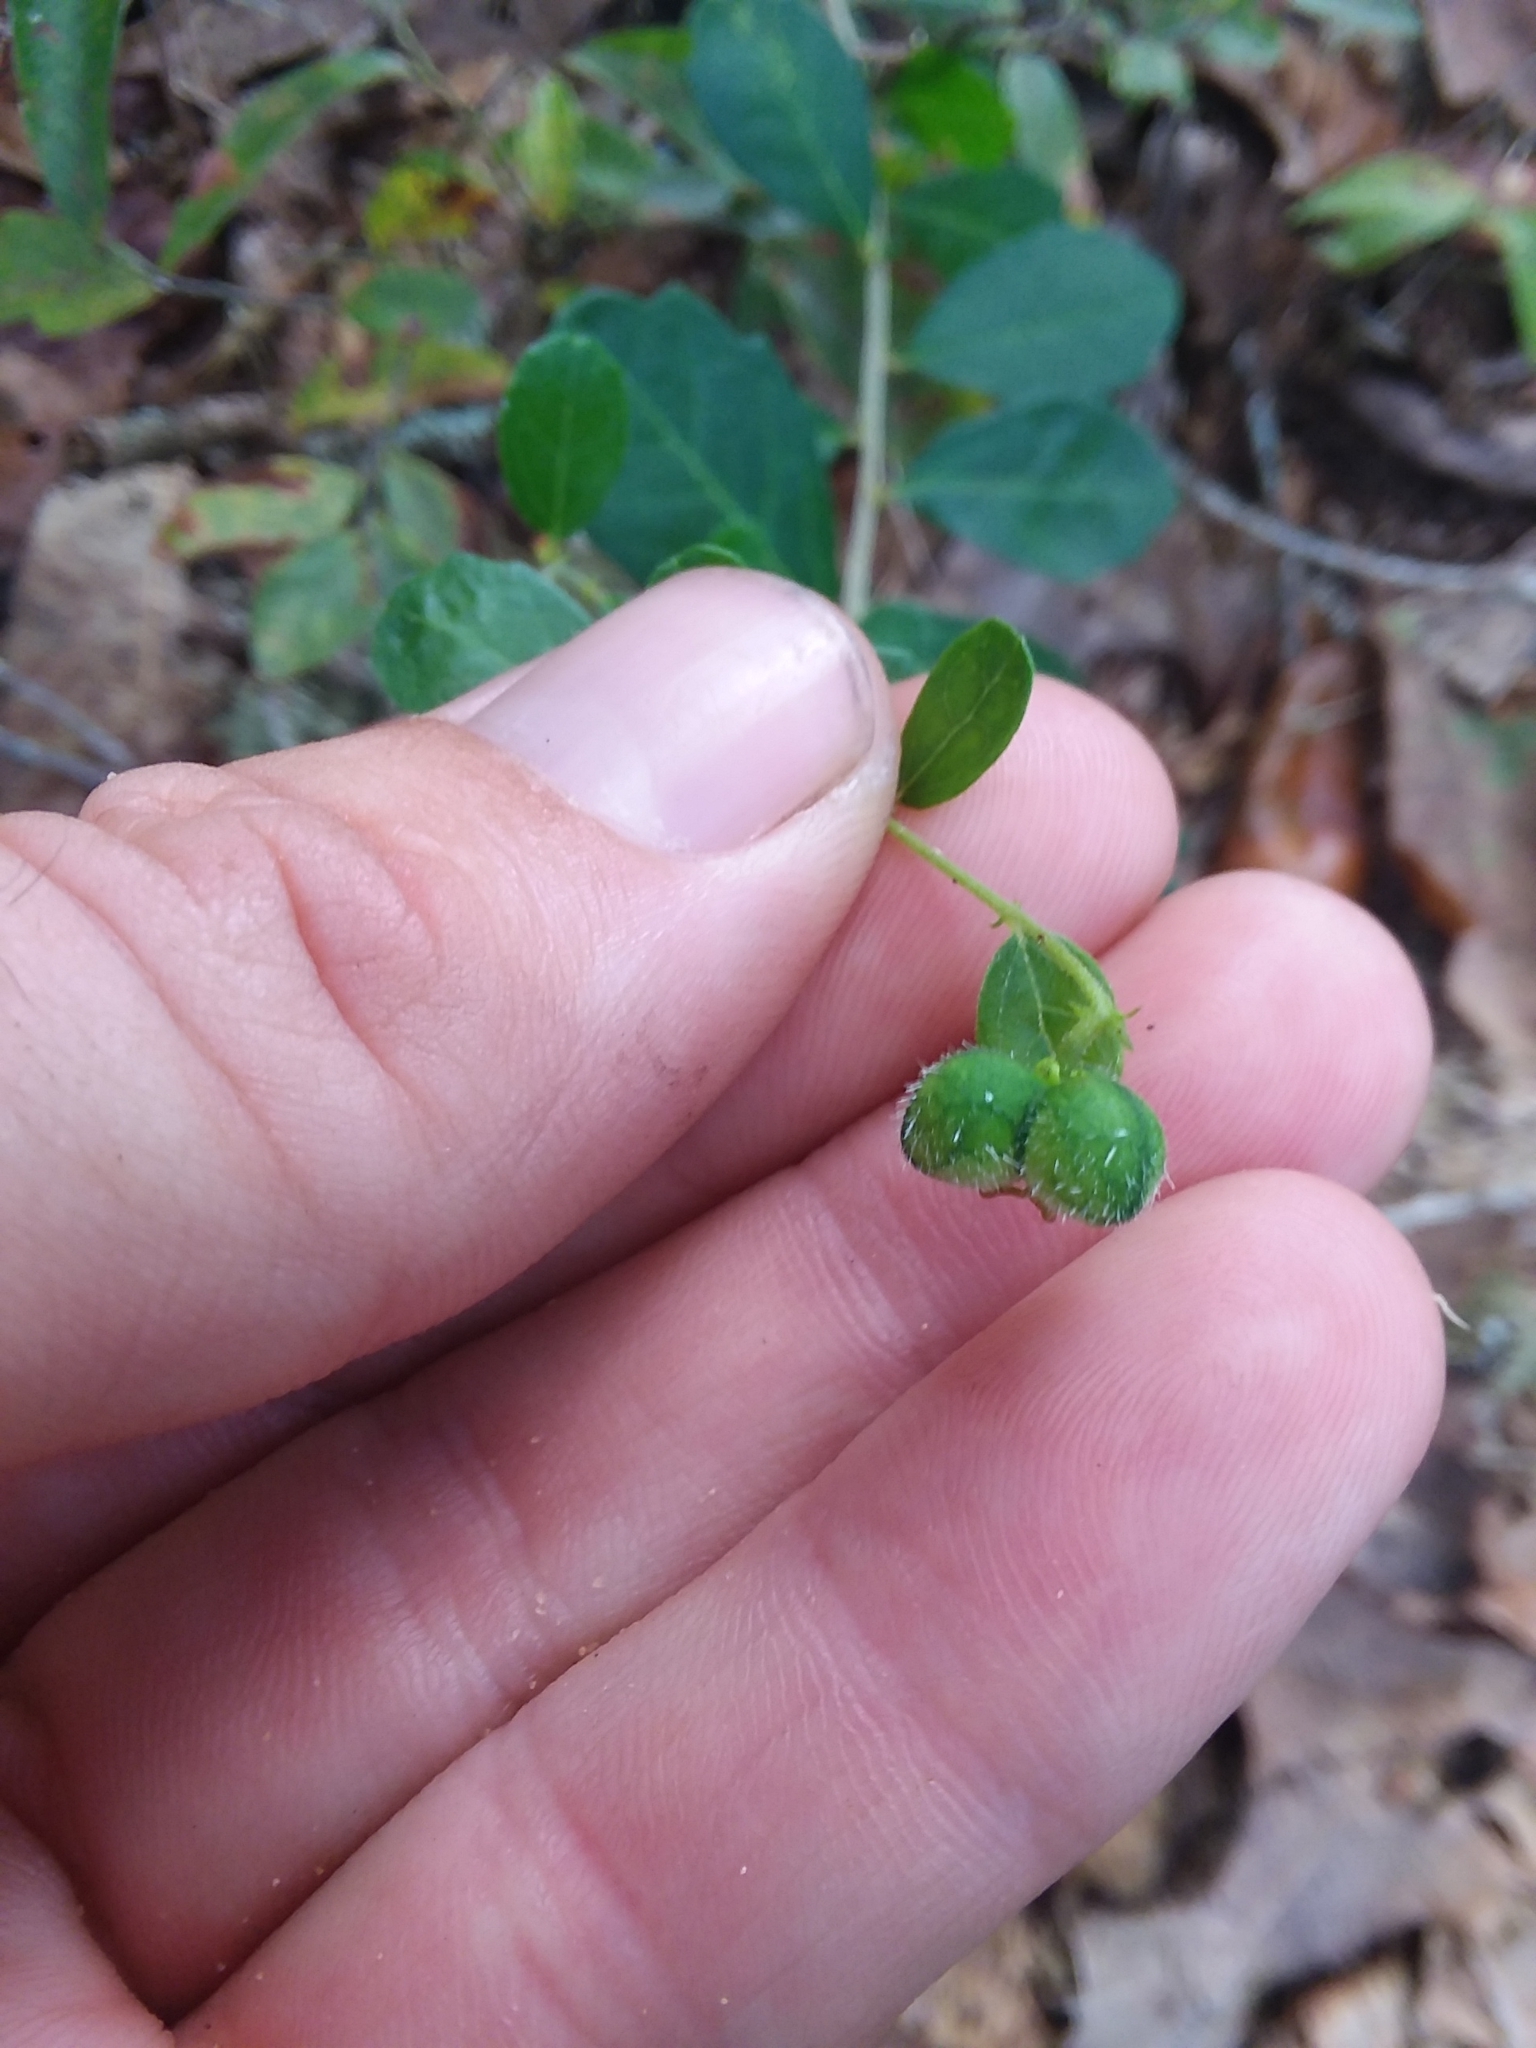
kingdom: Plantae
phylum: Tracheophyta
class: Magnoliopsida
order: Malpighiales
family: Euphorbiaceae
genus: Tragia
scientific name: Tragia urens
